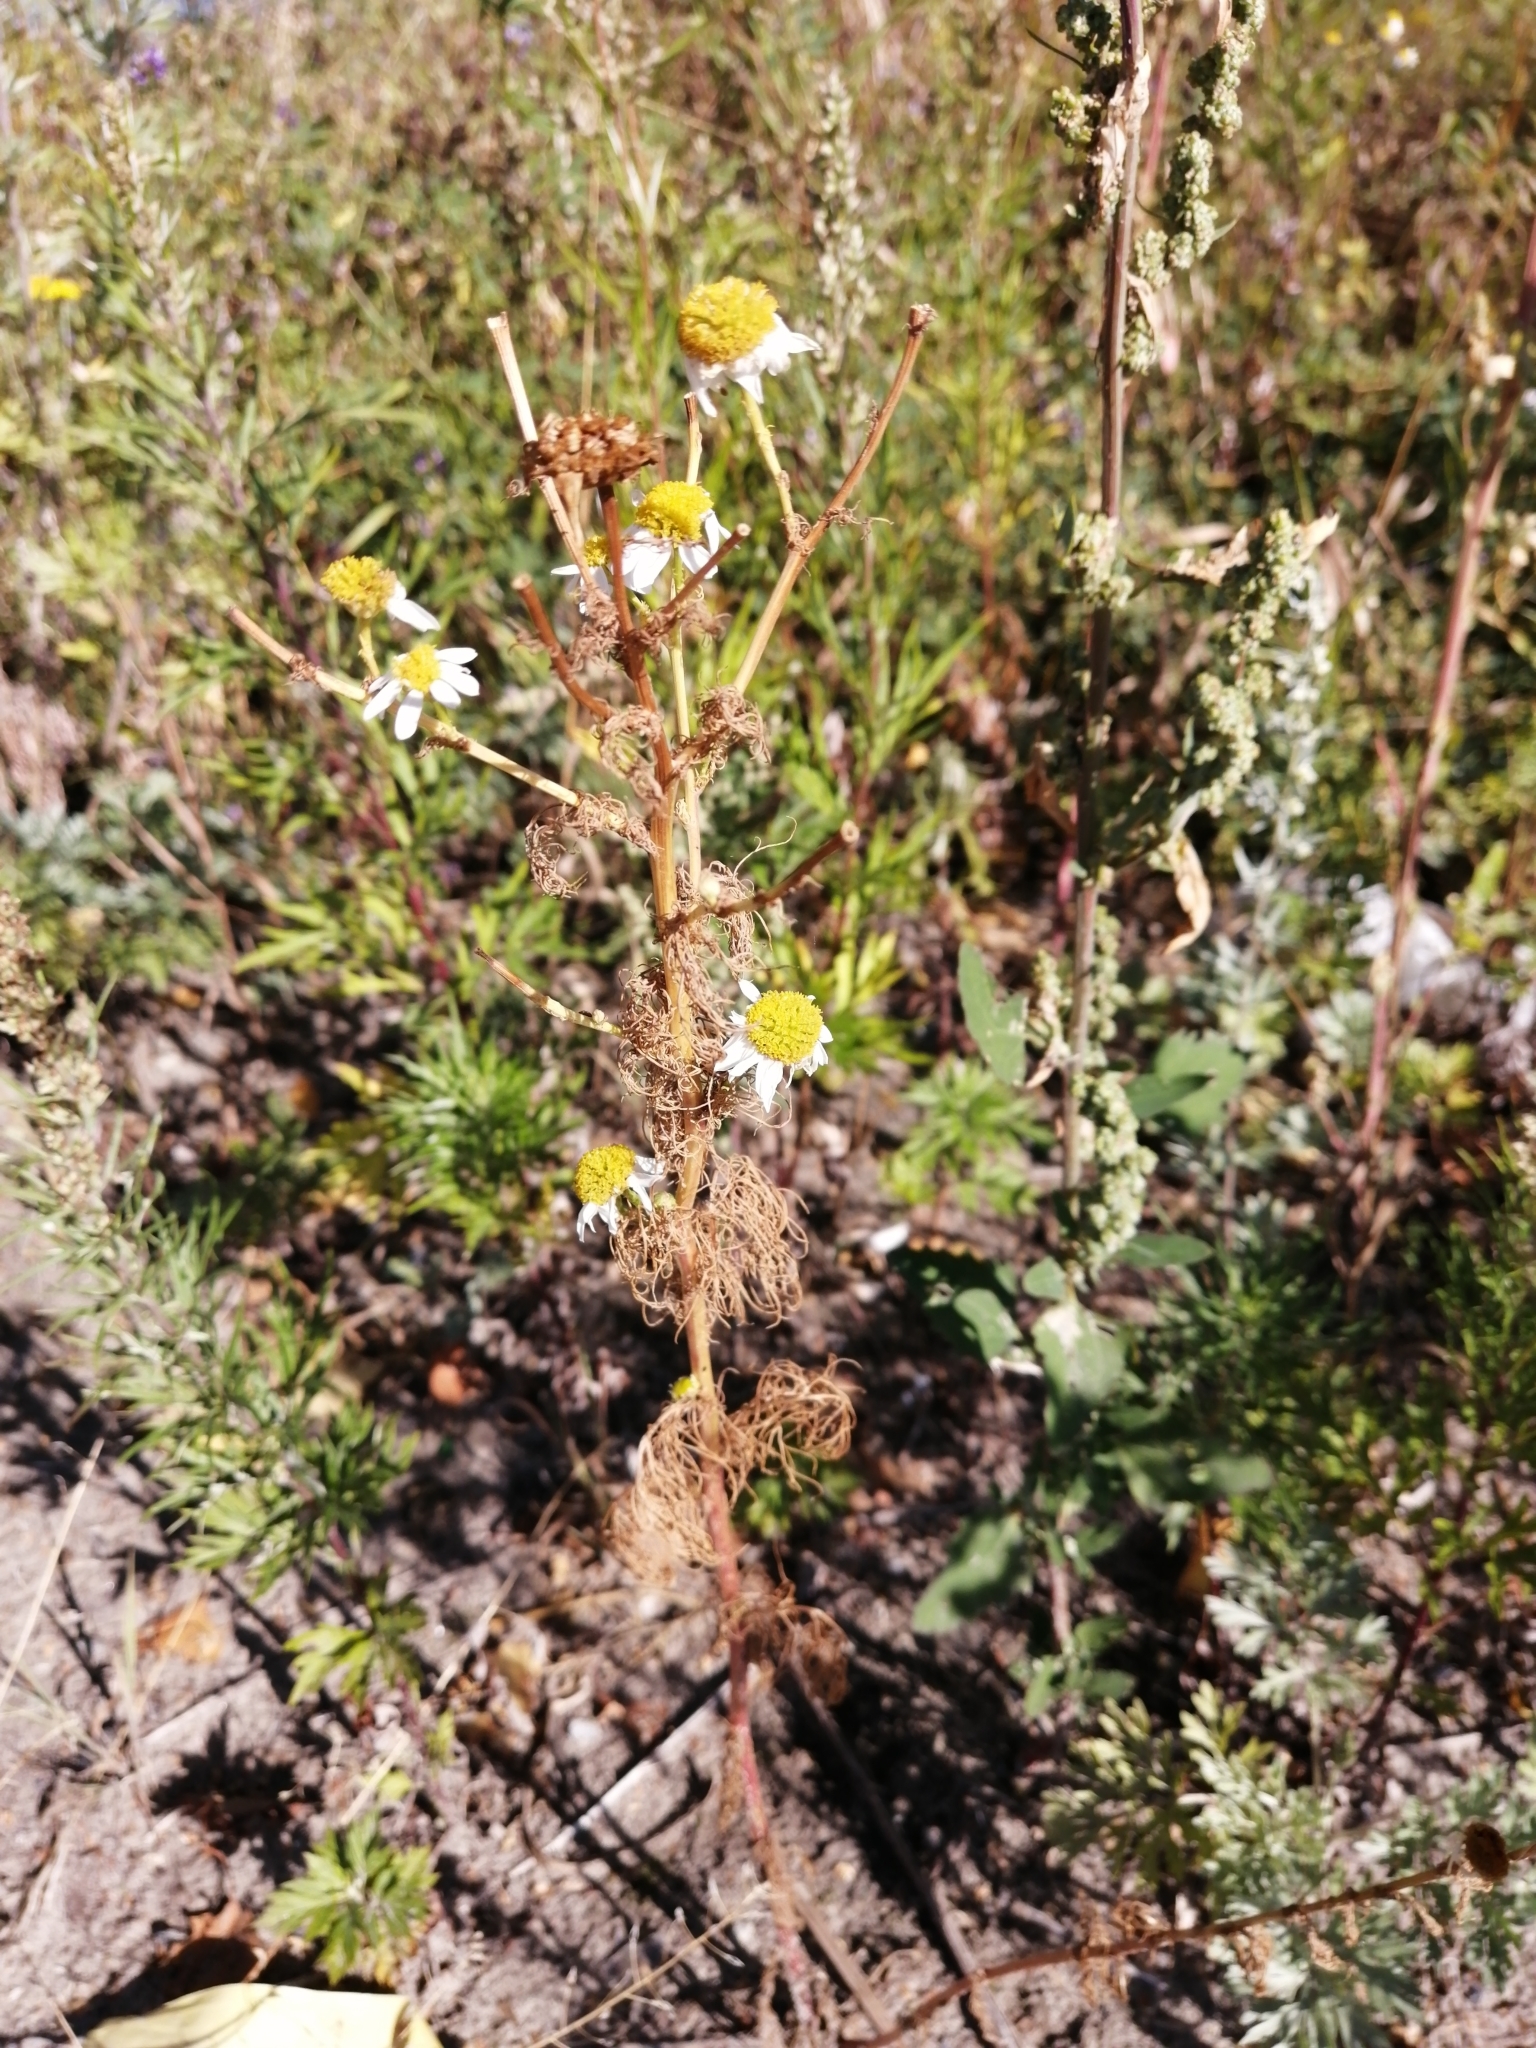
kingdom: Plantae
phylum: Tracheophyta
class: Magnoliopsida
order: Asterales
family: Asteraceae
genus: Tripleurospermum
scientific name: Tripleurospermum inodorum
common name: Scentless mayweed
